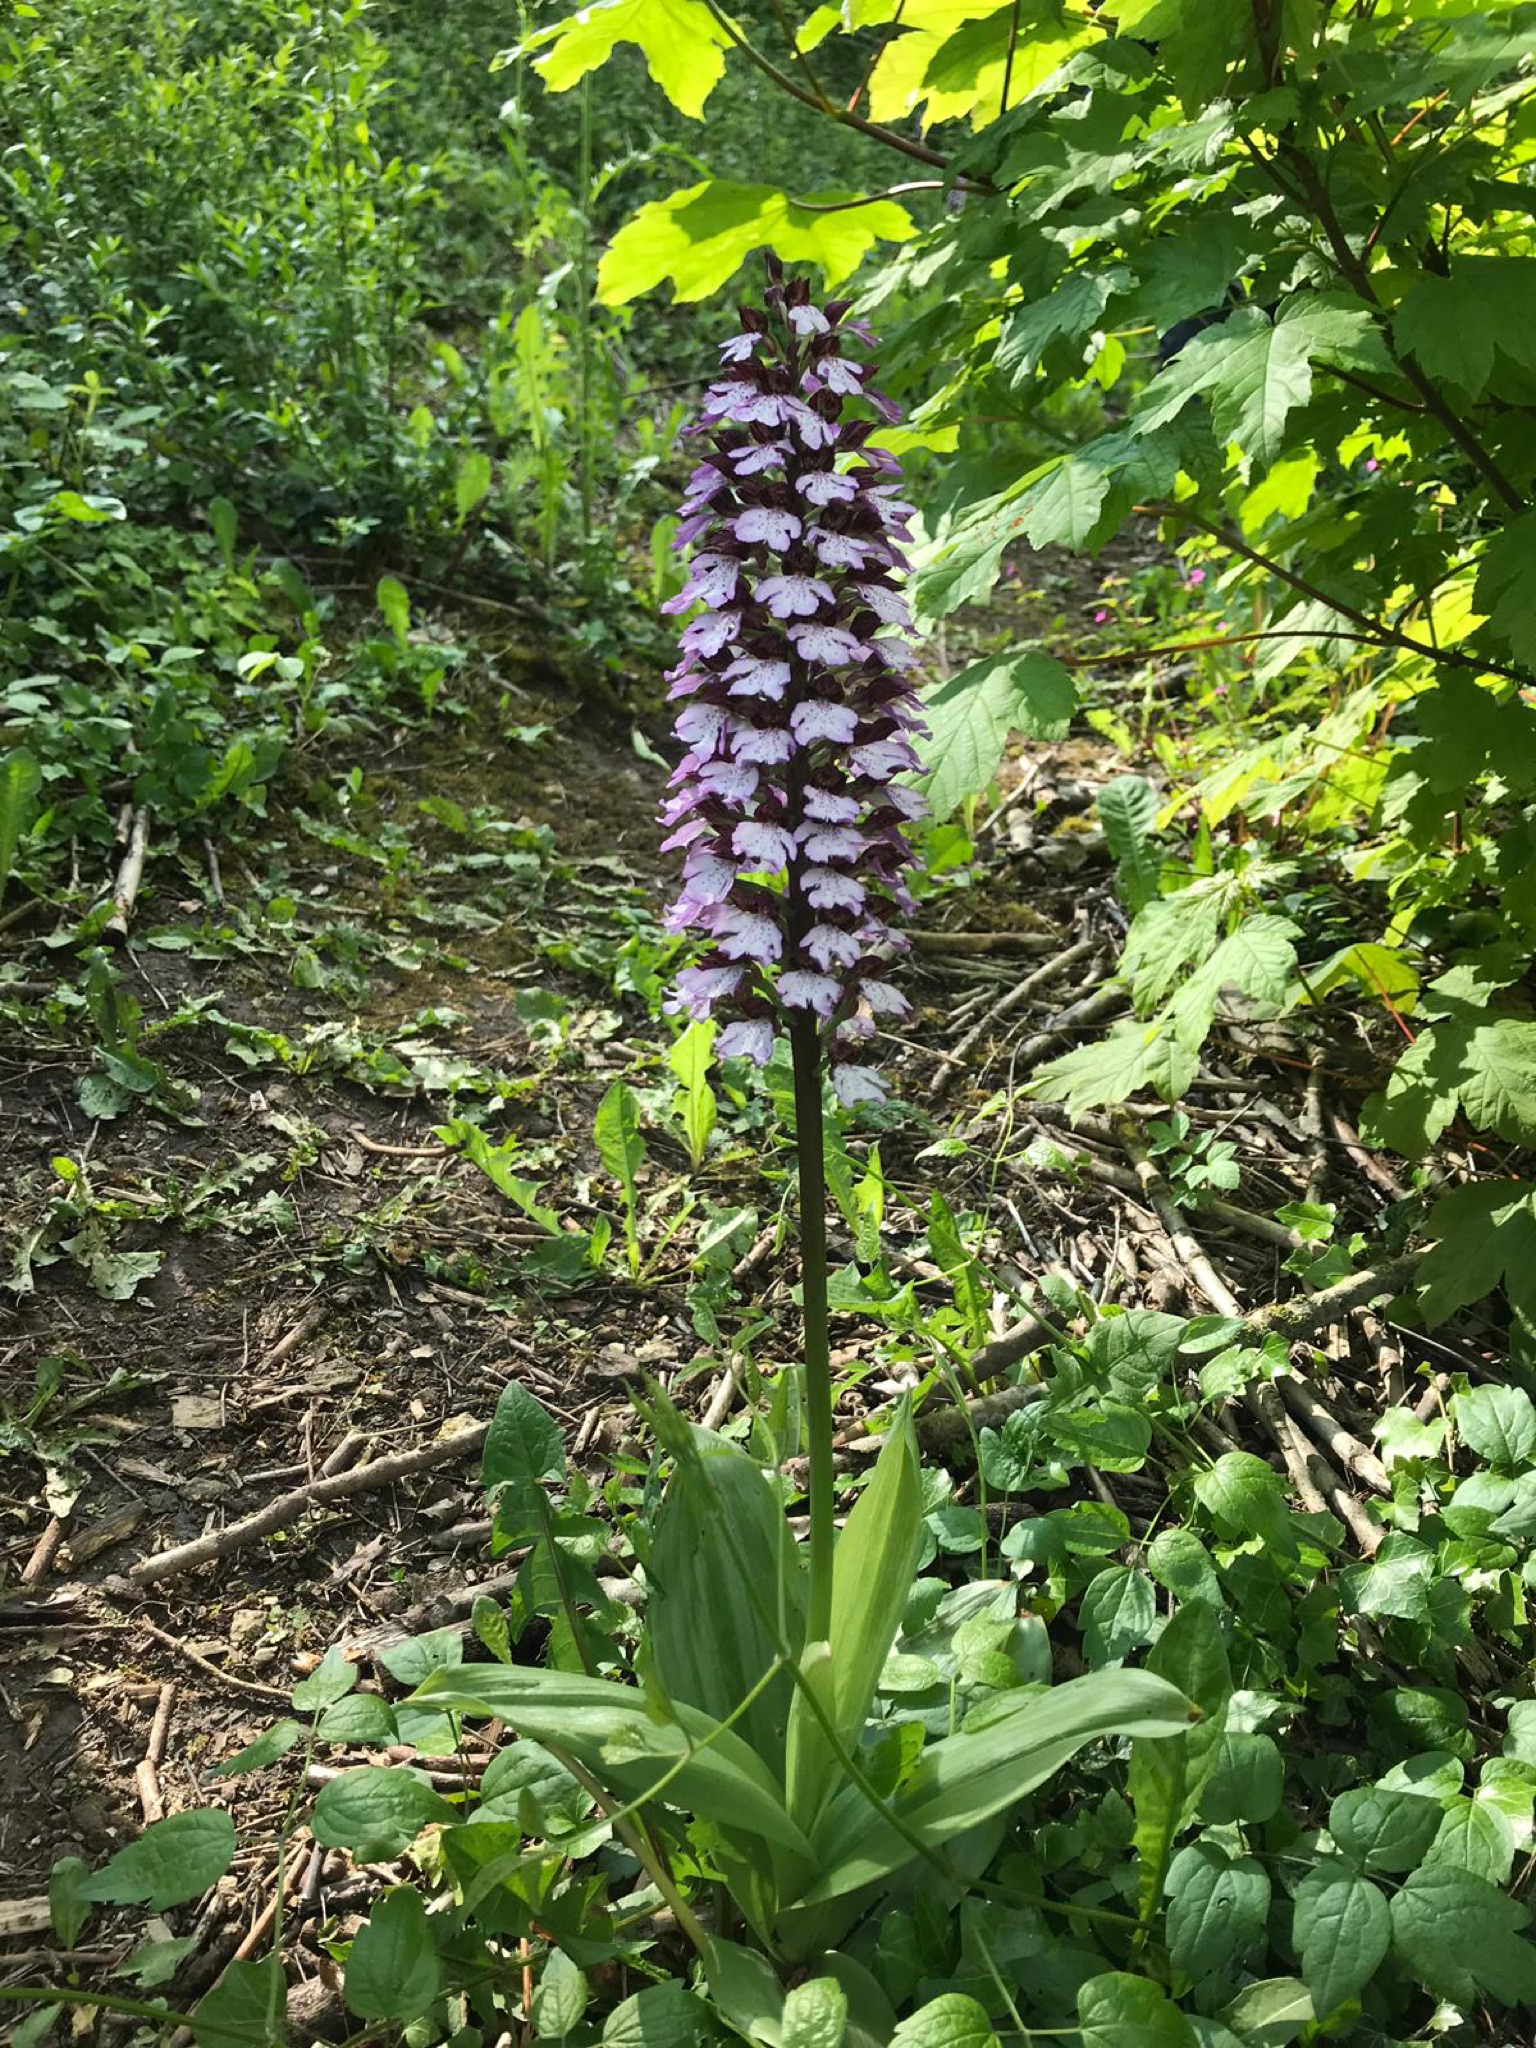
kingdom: Plantae
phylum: Tracheophyta
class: Liliopsida
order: Asparagales
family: Orchidaceae
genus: Orchis
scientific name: Orchis purpurea
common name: Lady orchid
